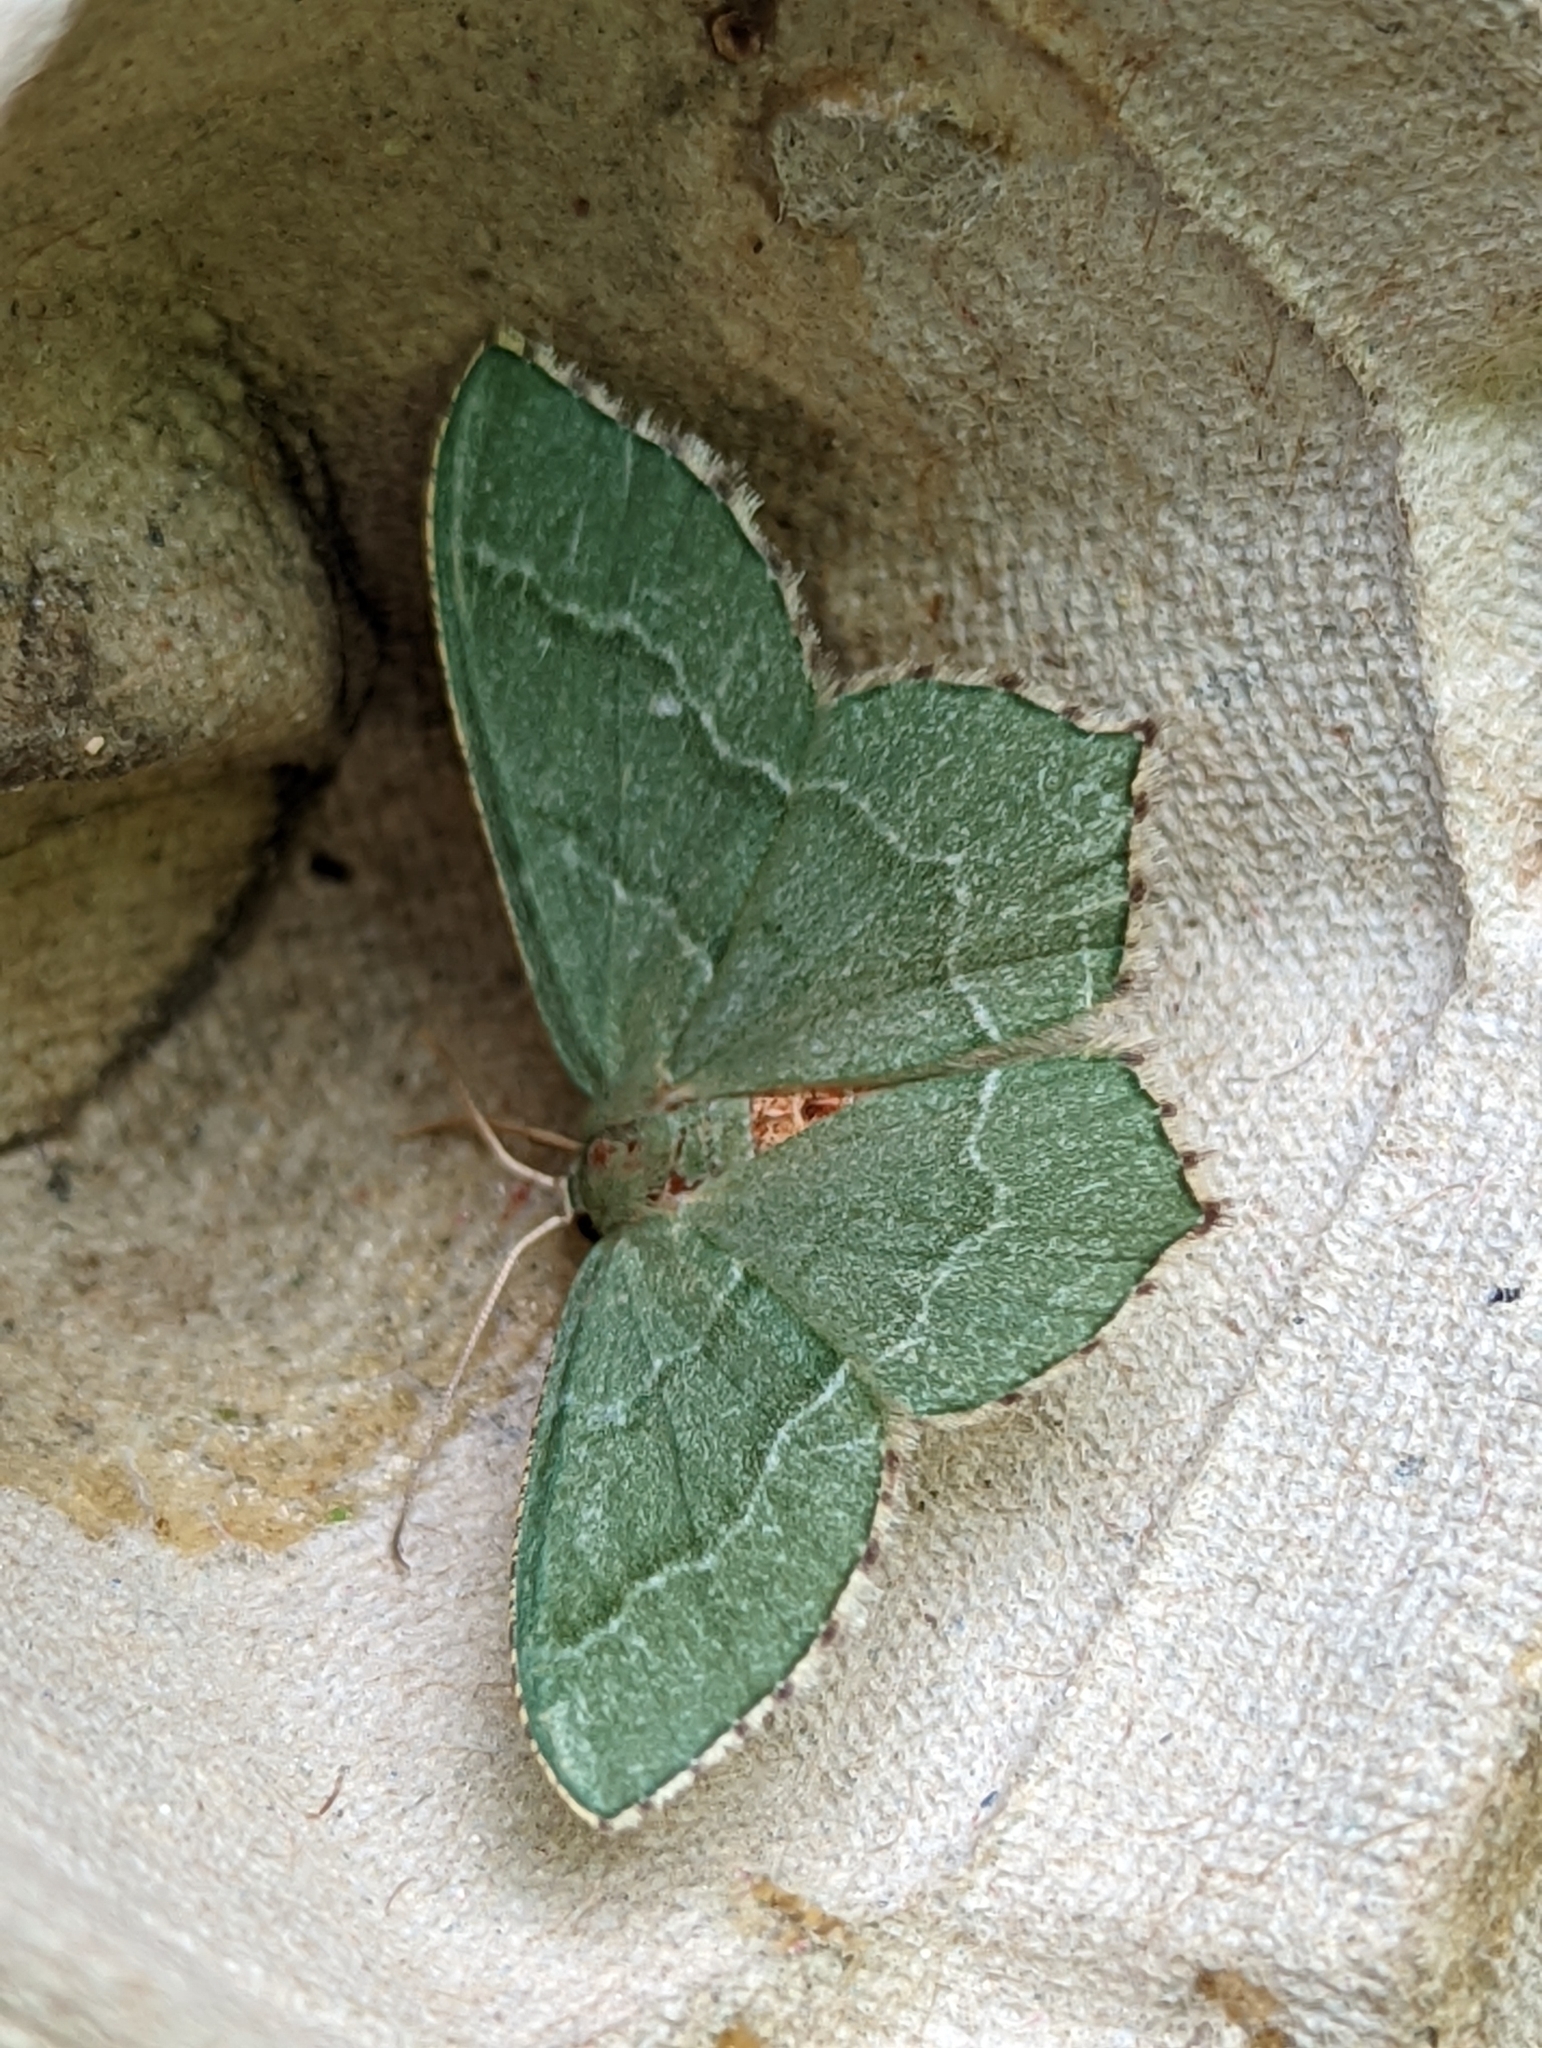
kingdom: Animalia
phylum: Arthropoda
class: Insecta
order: Lepidoptera
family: Geometridae
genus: Hemithea
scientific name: Hemithea aestivaria
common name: Common emerald
